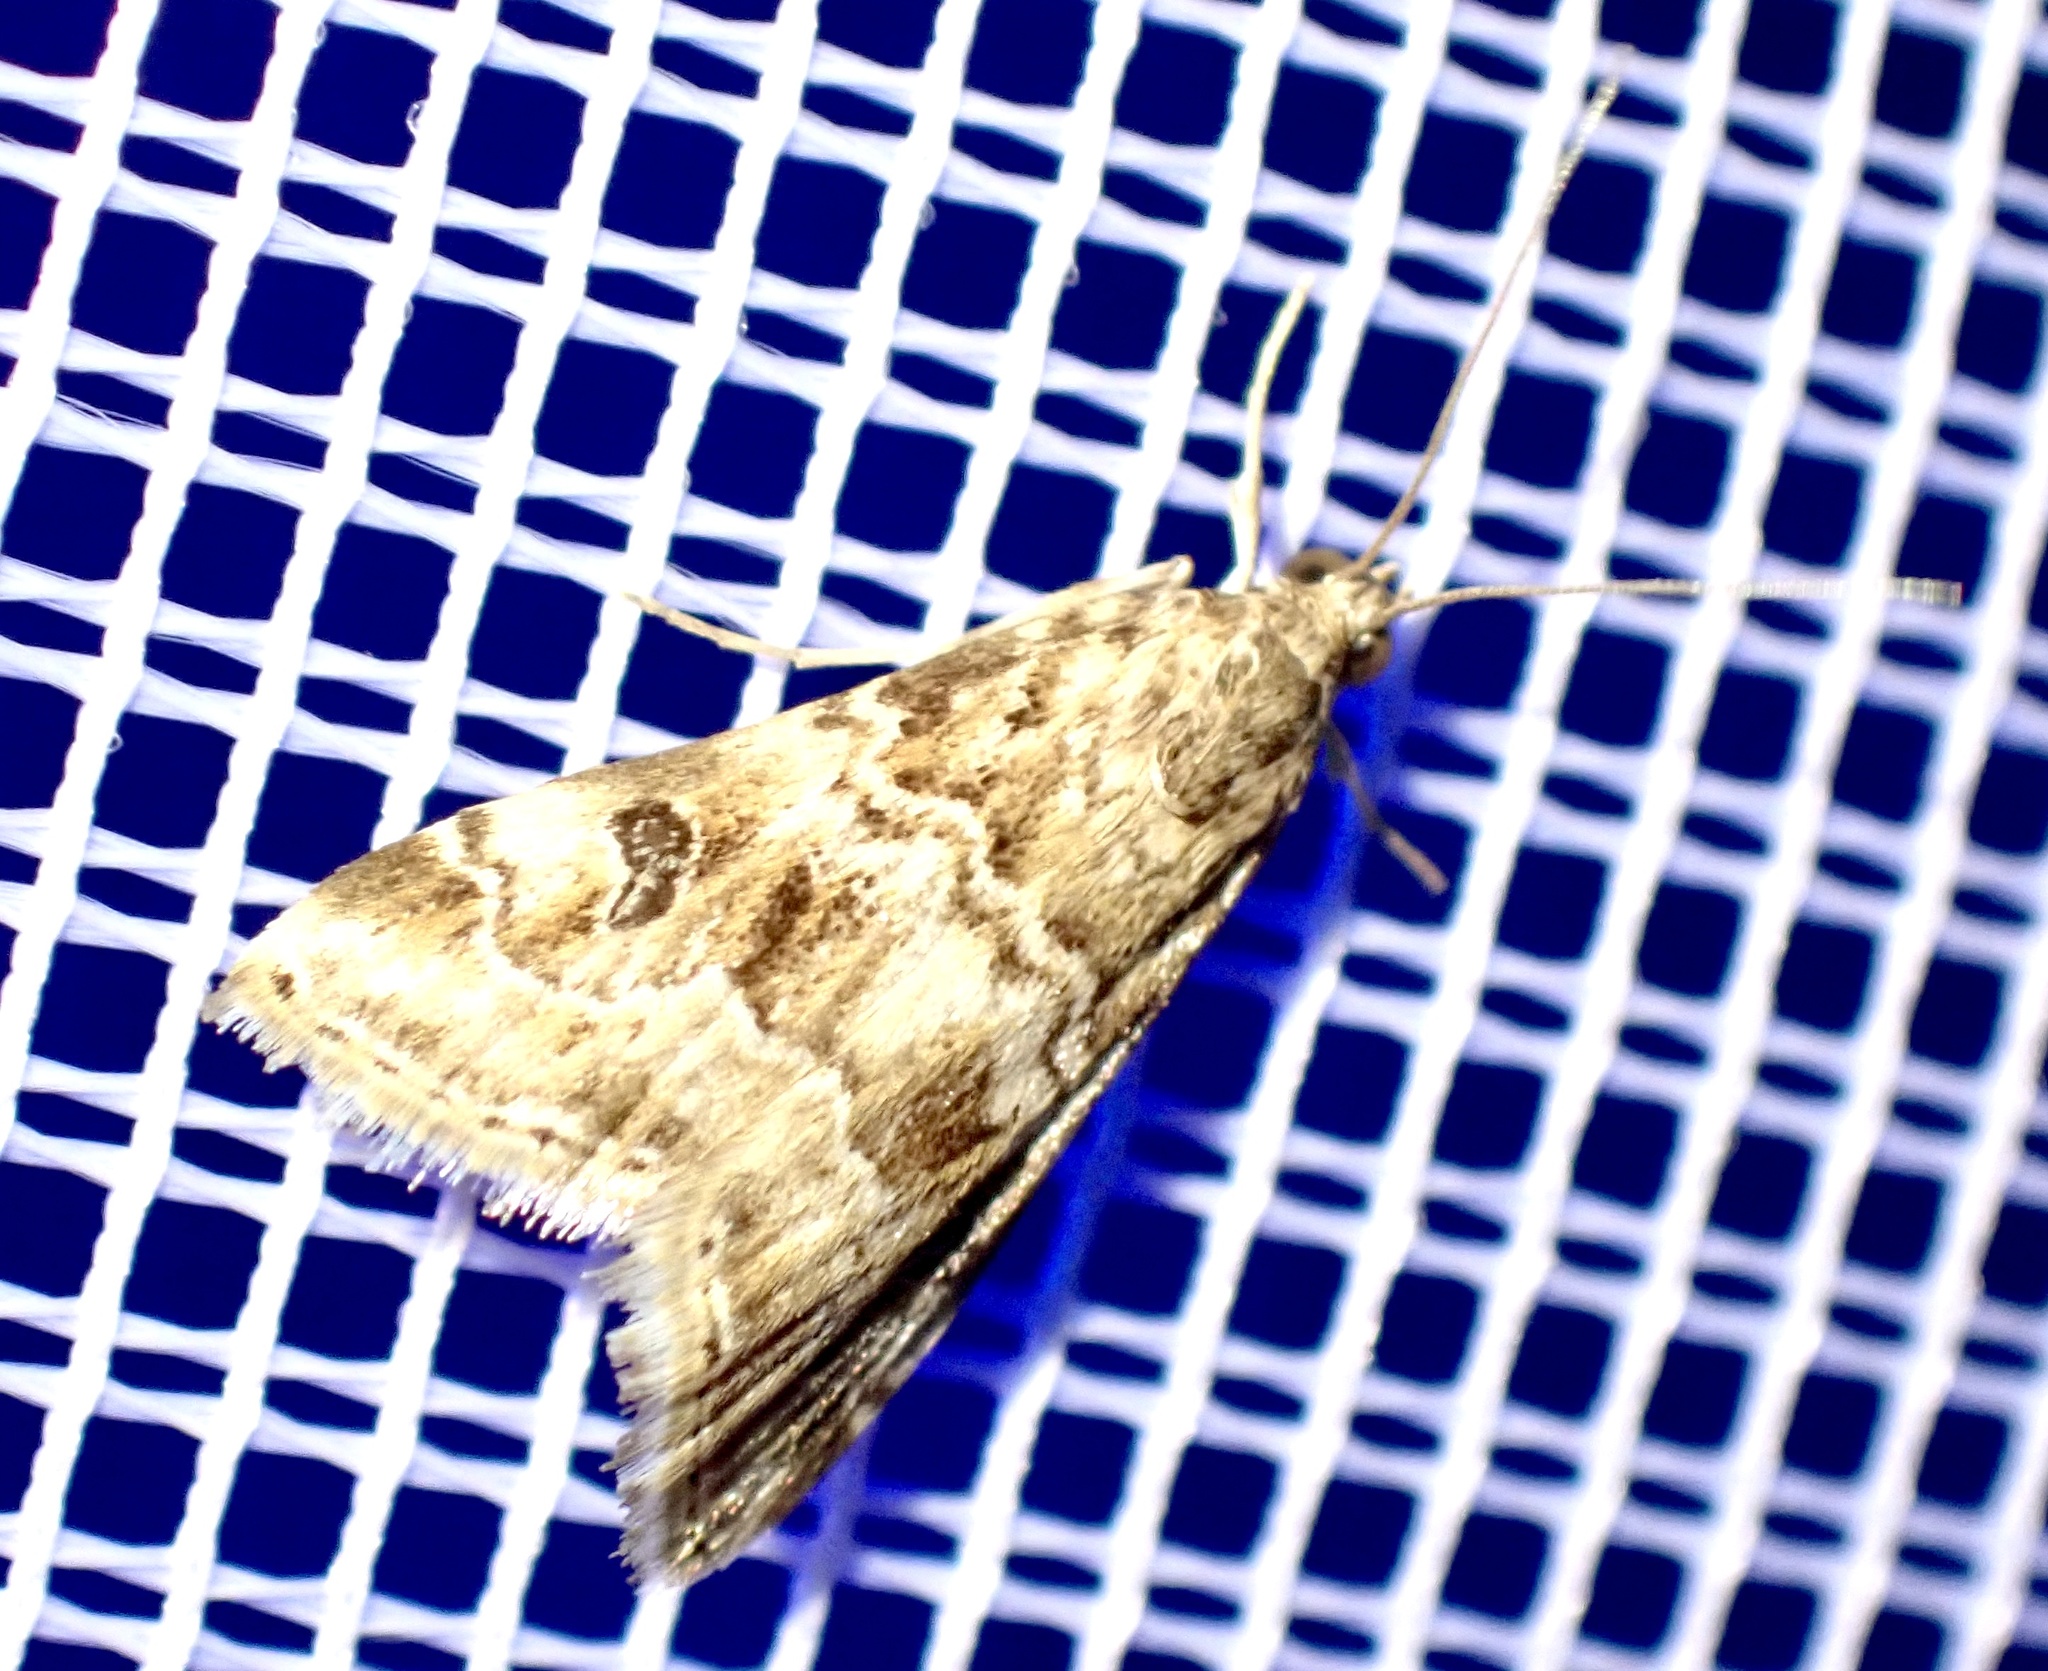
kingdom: Animalia
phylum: Arthropoda
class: Insecta
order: Lepidoptera
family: Crambidae
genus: Hellula
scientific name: Hellula undalis
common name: Cabbage webworm
